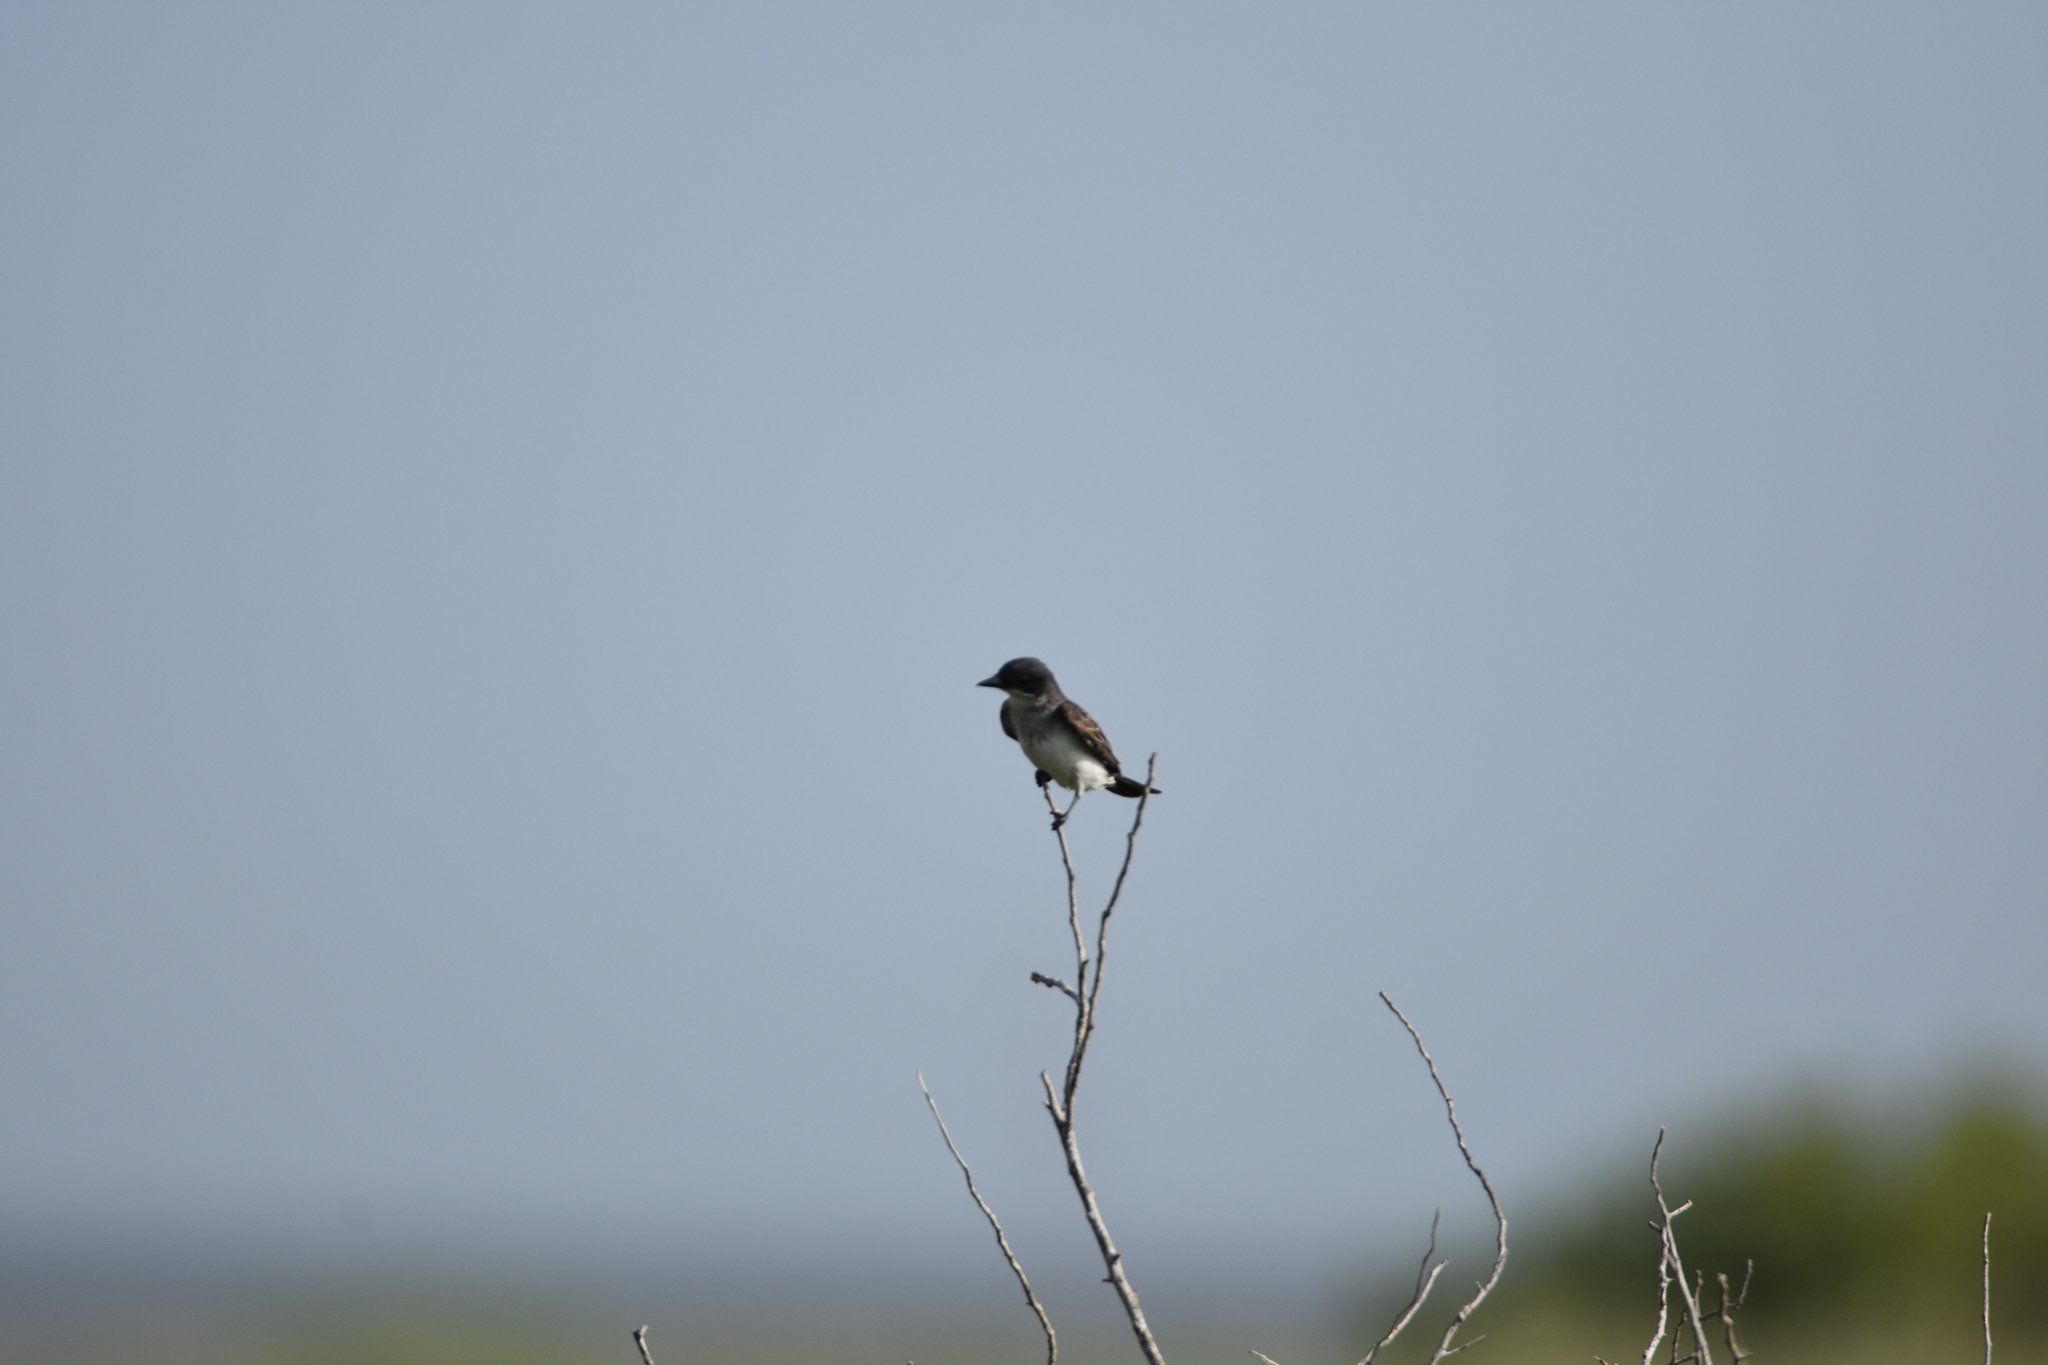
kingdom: Animalia
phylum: Chordata
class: Aves
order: Passeriformes
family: Tyrannidae
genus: Tyrannus
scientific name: Tyrannus tyrannus
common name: Eastern kingbird
